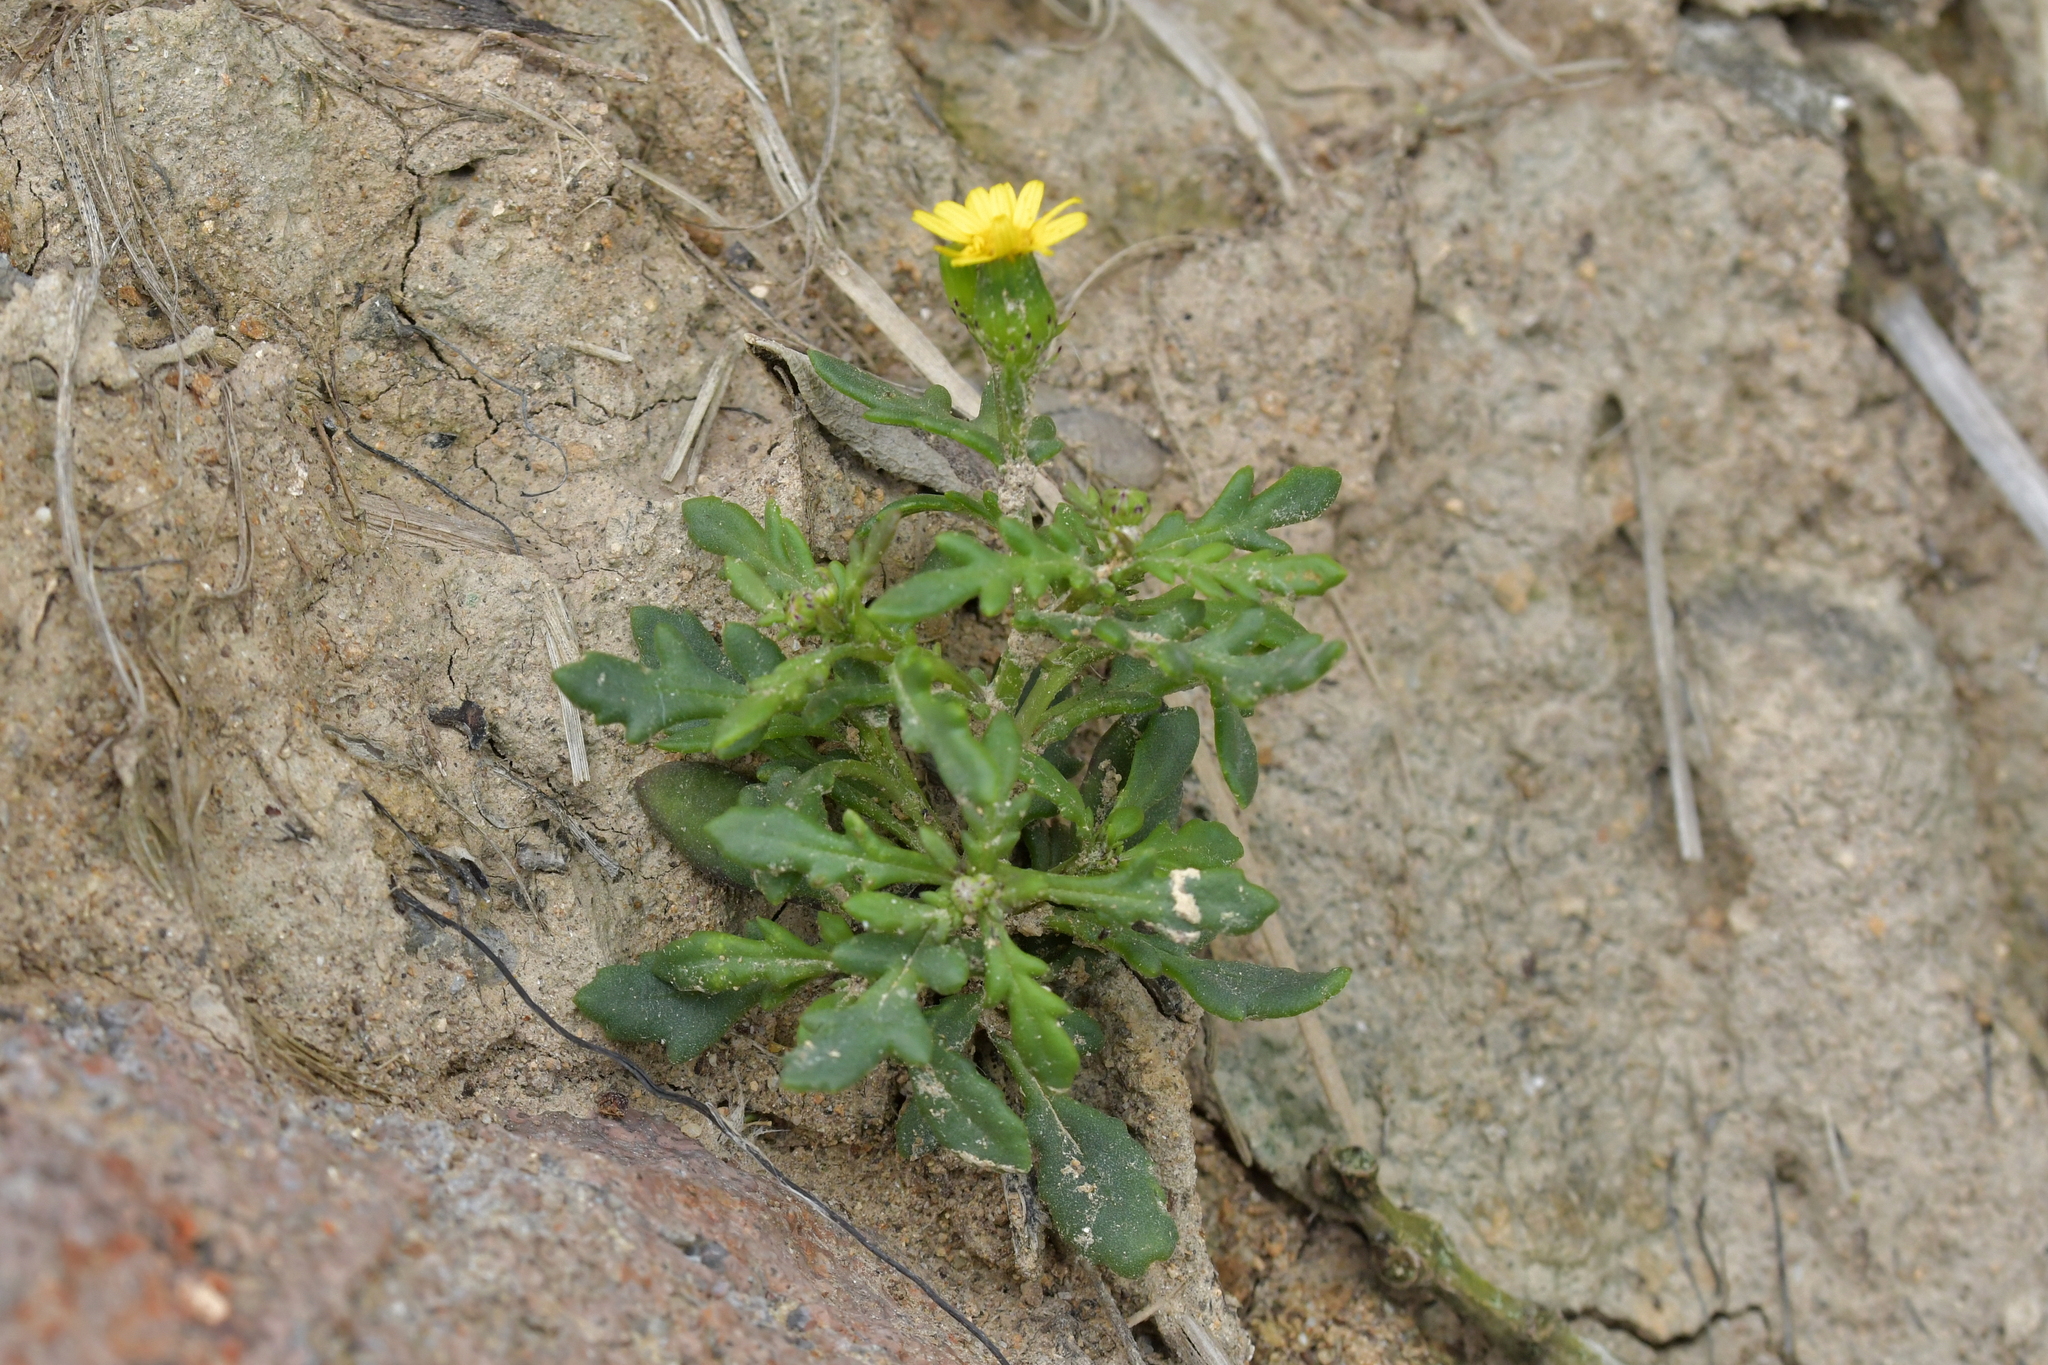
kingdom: Plantae
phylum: Tracheophyta
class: Magnoliopsida
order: Asterales
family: Asteraceae
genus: Senecio
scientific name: Senecio lautus
